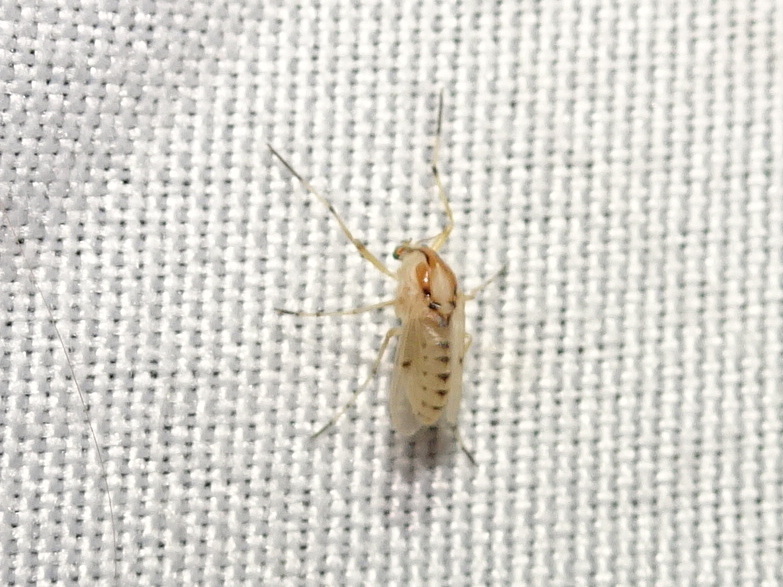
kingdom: Animalia
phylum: Arthropoda
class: Insecta
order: Diptera
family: Chironomidae
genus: Coelotanypus
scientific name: Coelotanypus concinnus
